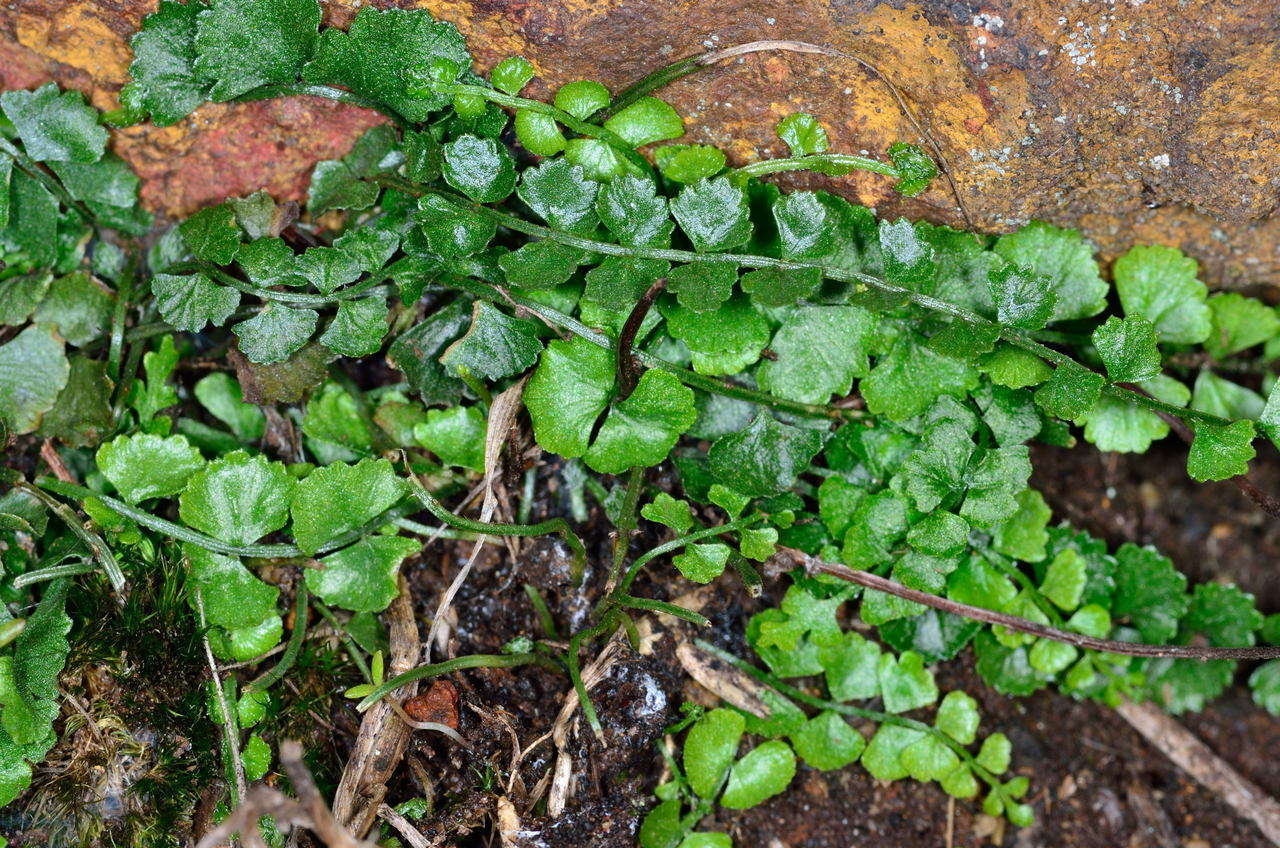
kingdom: Plantae
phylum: Tracheophyta
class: Polypodiopsida
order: Polypodiales
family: Aspleniaceae
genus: Asplenium
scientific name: Asplenium flabellifolium
